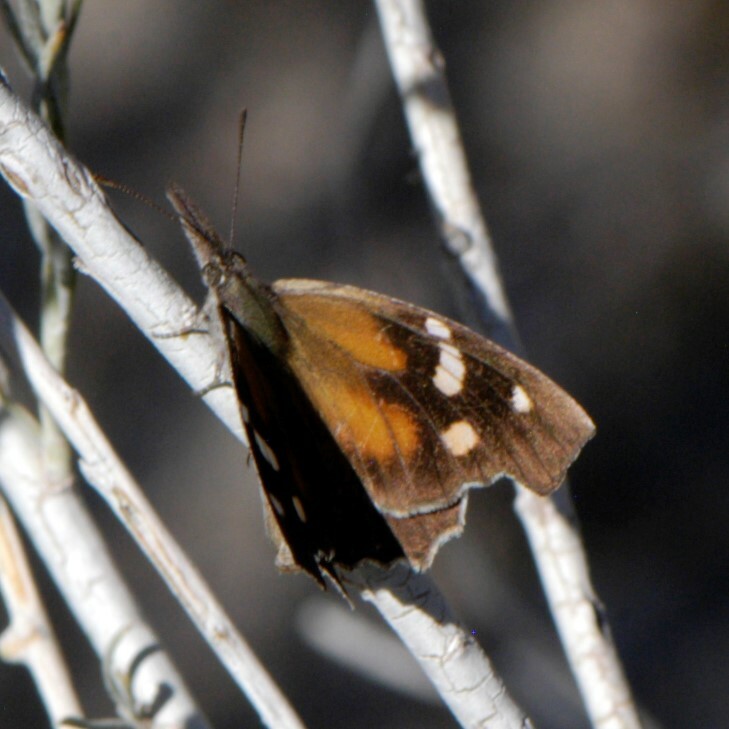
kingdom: Animalia
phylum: Arthropoda
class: Insecta
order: Lepidoptera
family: Nymphalidae
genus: Libytheana
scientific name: Libytheana carinenta
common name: American snout
